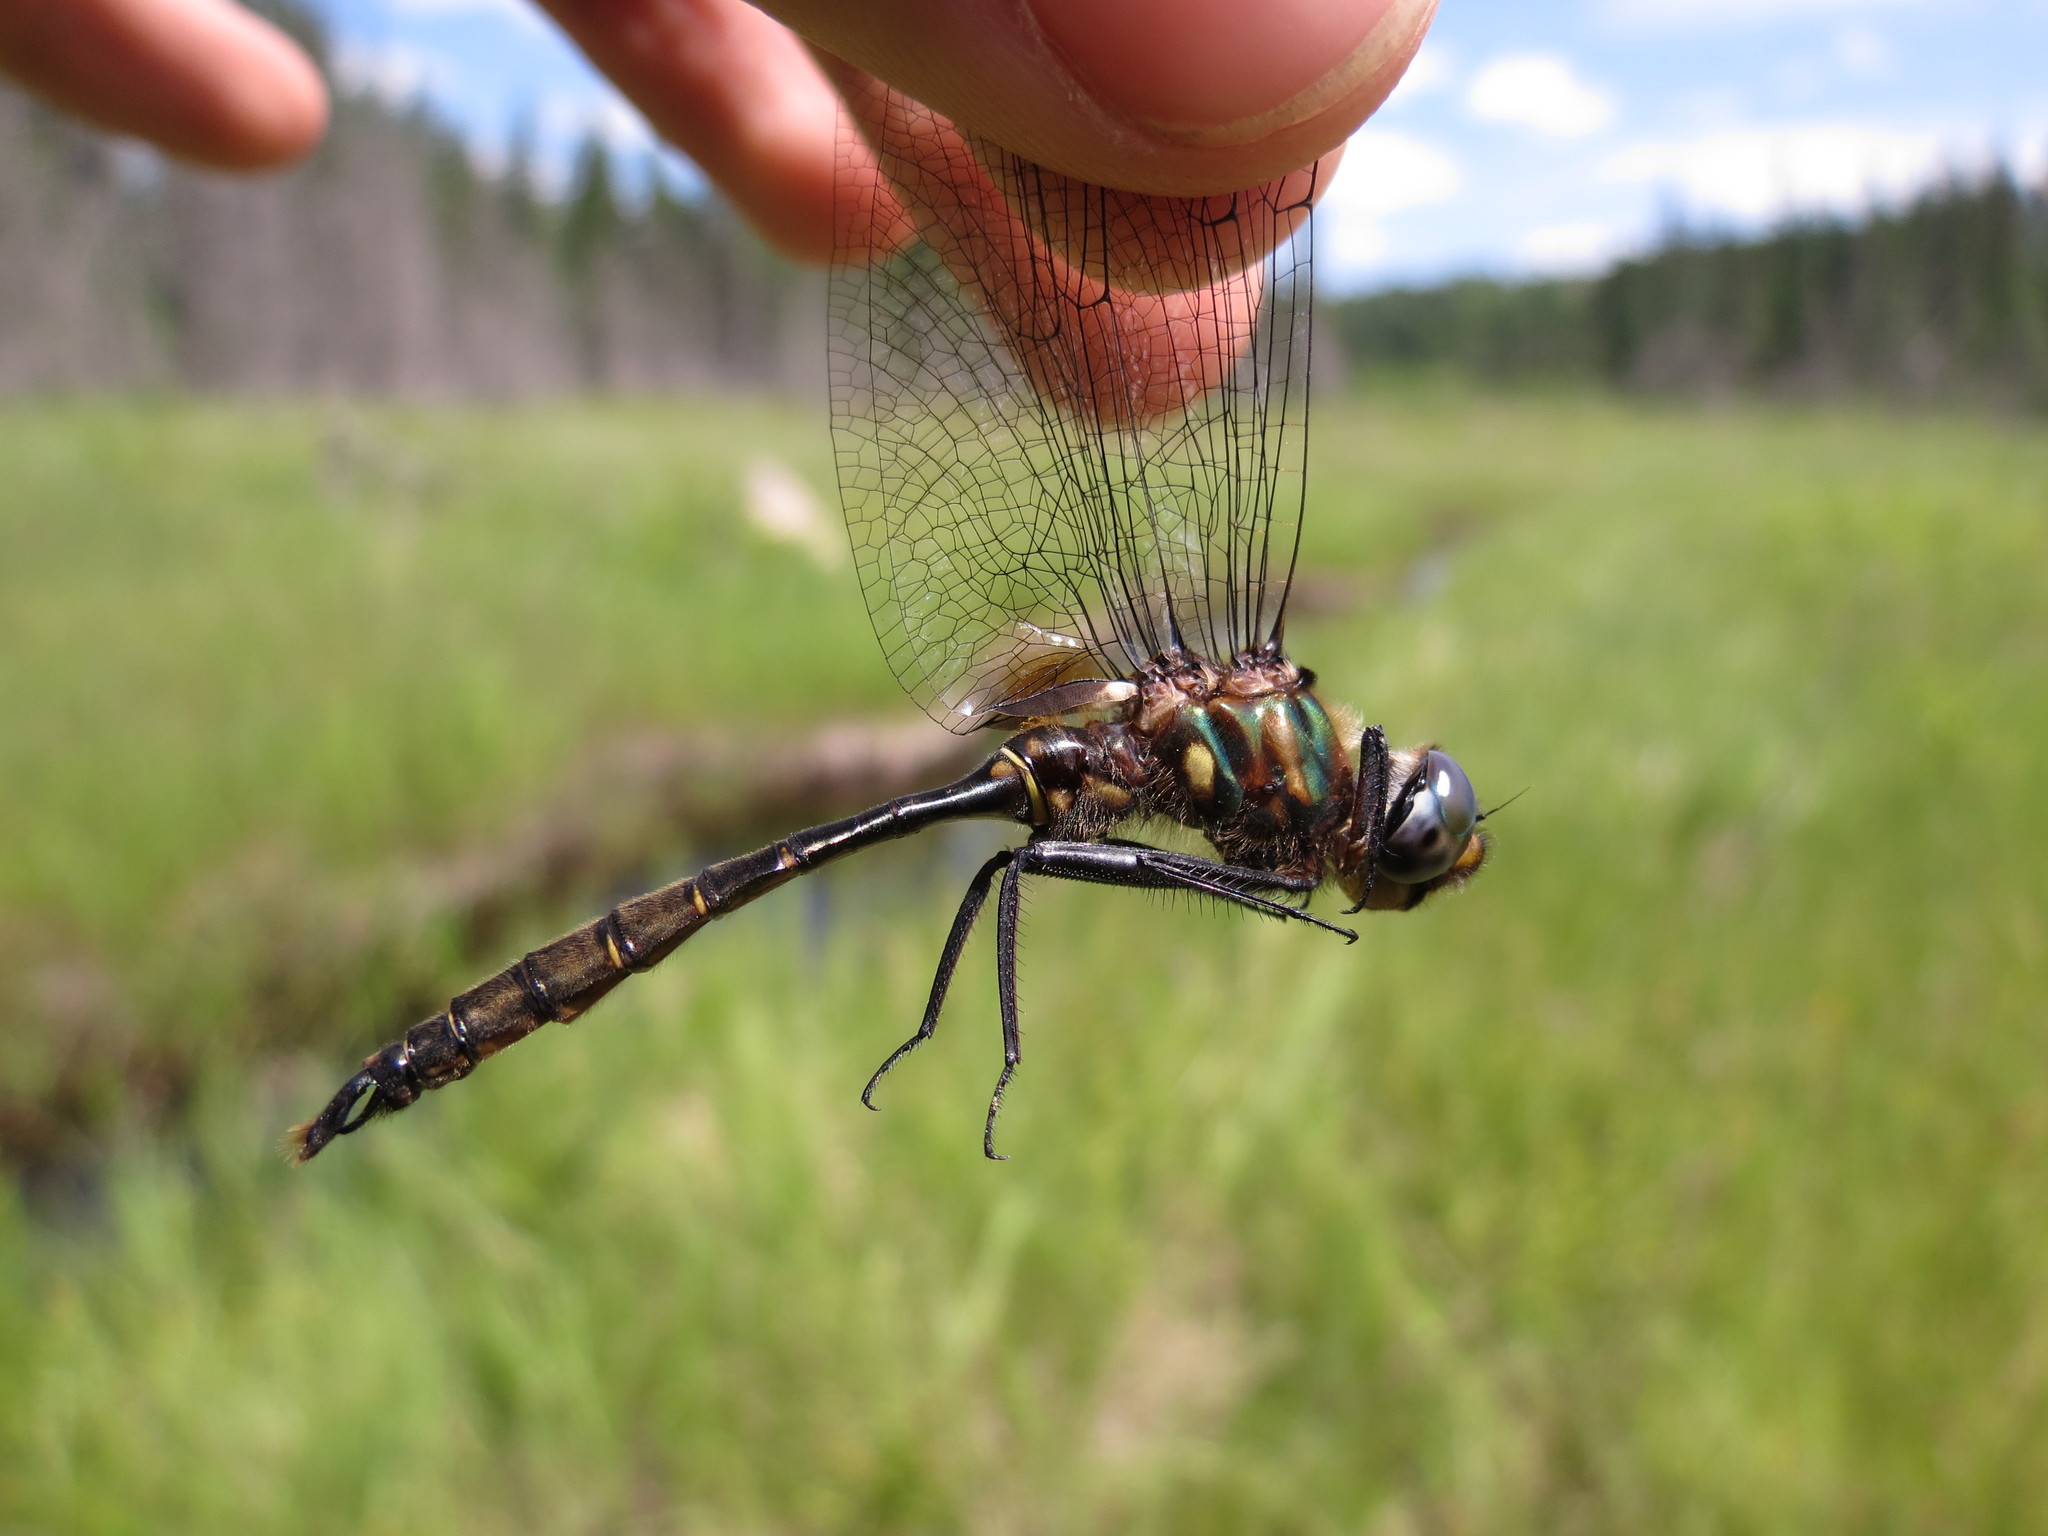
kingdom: Animalia
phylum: Arthropoda
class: Insecta
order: Odonata
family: Corduliidae
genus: Somatochlora
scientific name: Somatochlora walshii
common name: Brush-tipped emerald
